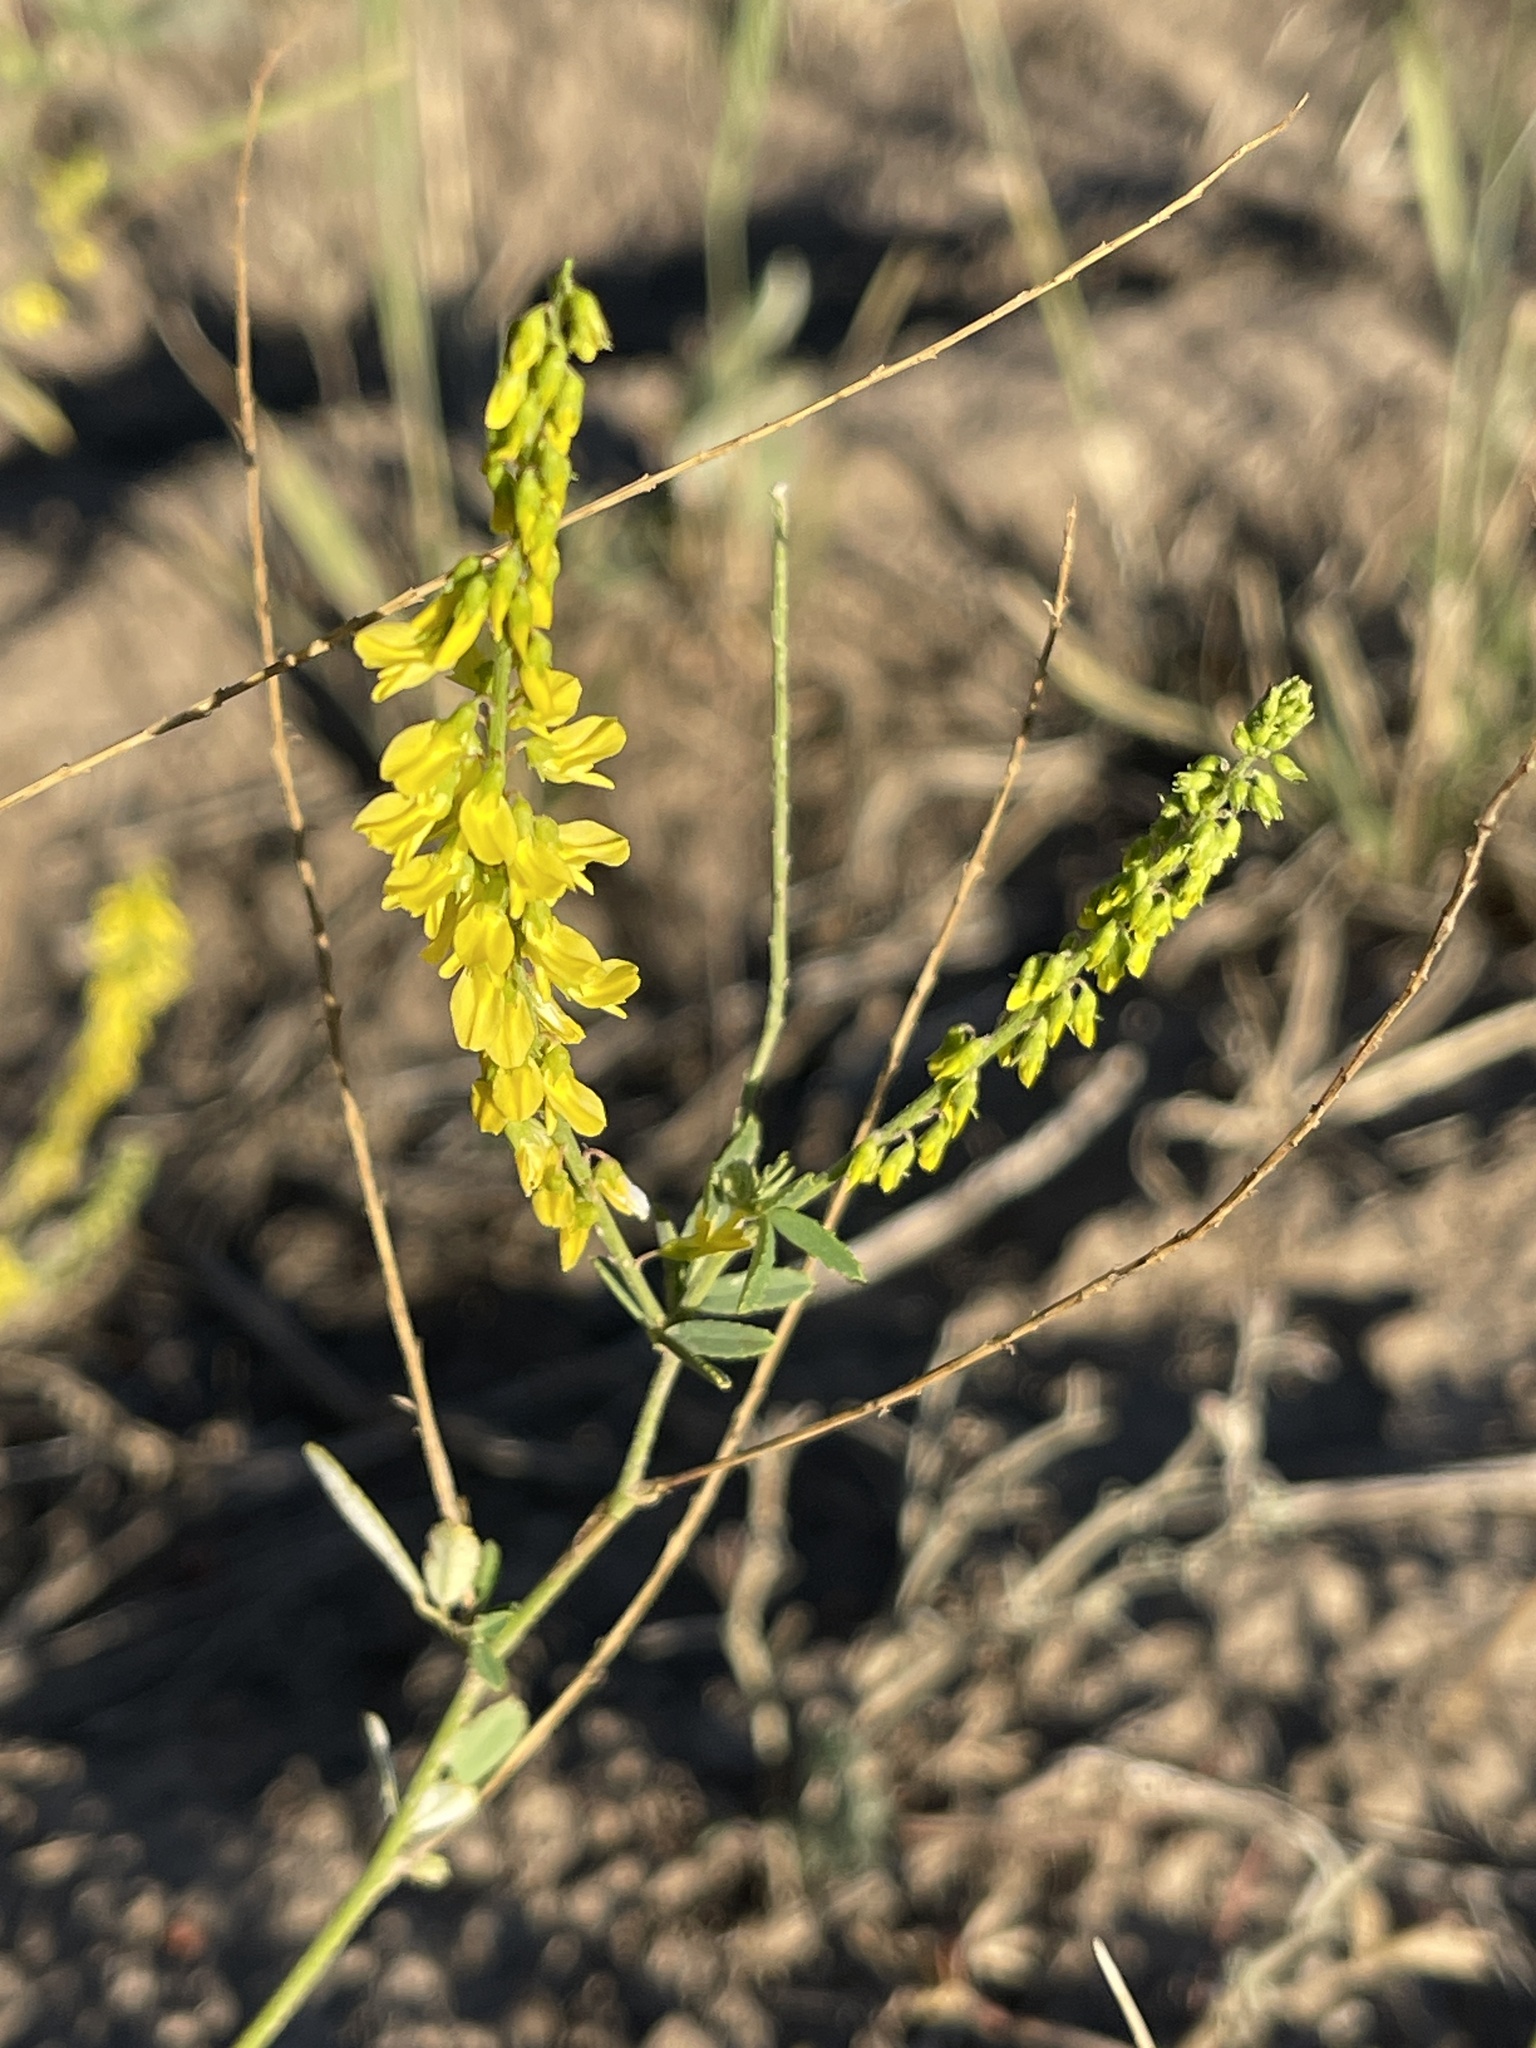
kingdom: Plantae
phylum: Tracheophyta
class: Magnoliopsida
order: Fabales
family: Fabaceae
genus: Melilotus
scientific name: Melilotus officinalis
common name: Sweetclover
